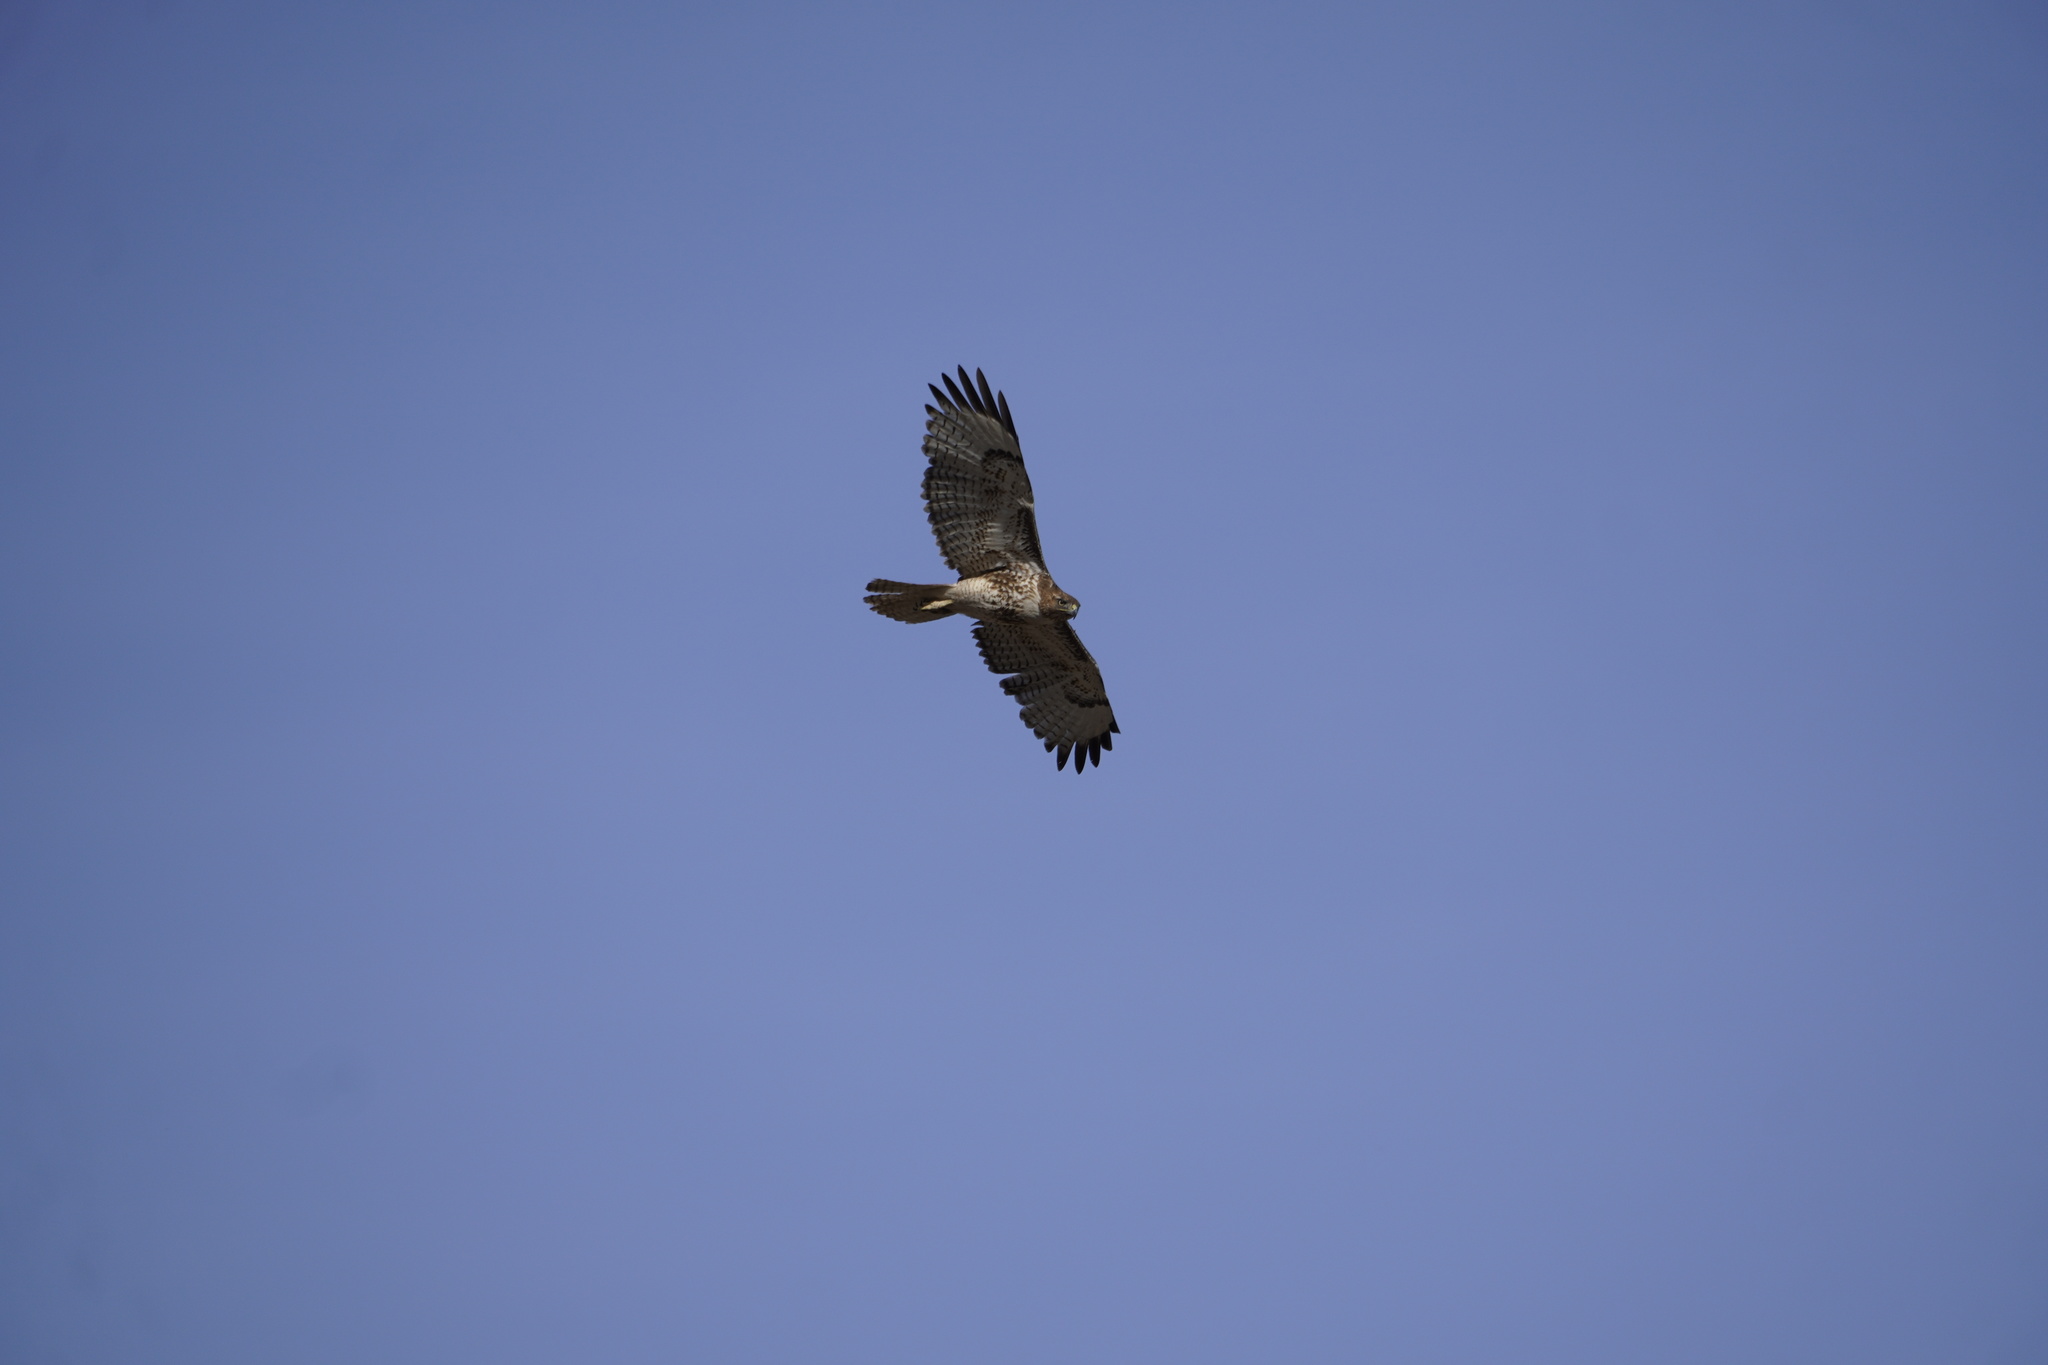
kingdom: Animalia
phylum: Chordata
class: Aves
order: Accipitriformes
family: Accipitridae
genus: Buteo
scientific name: Buteo jamaicensis
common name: Red-tailed hawk
